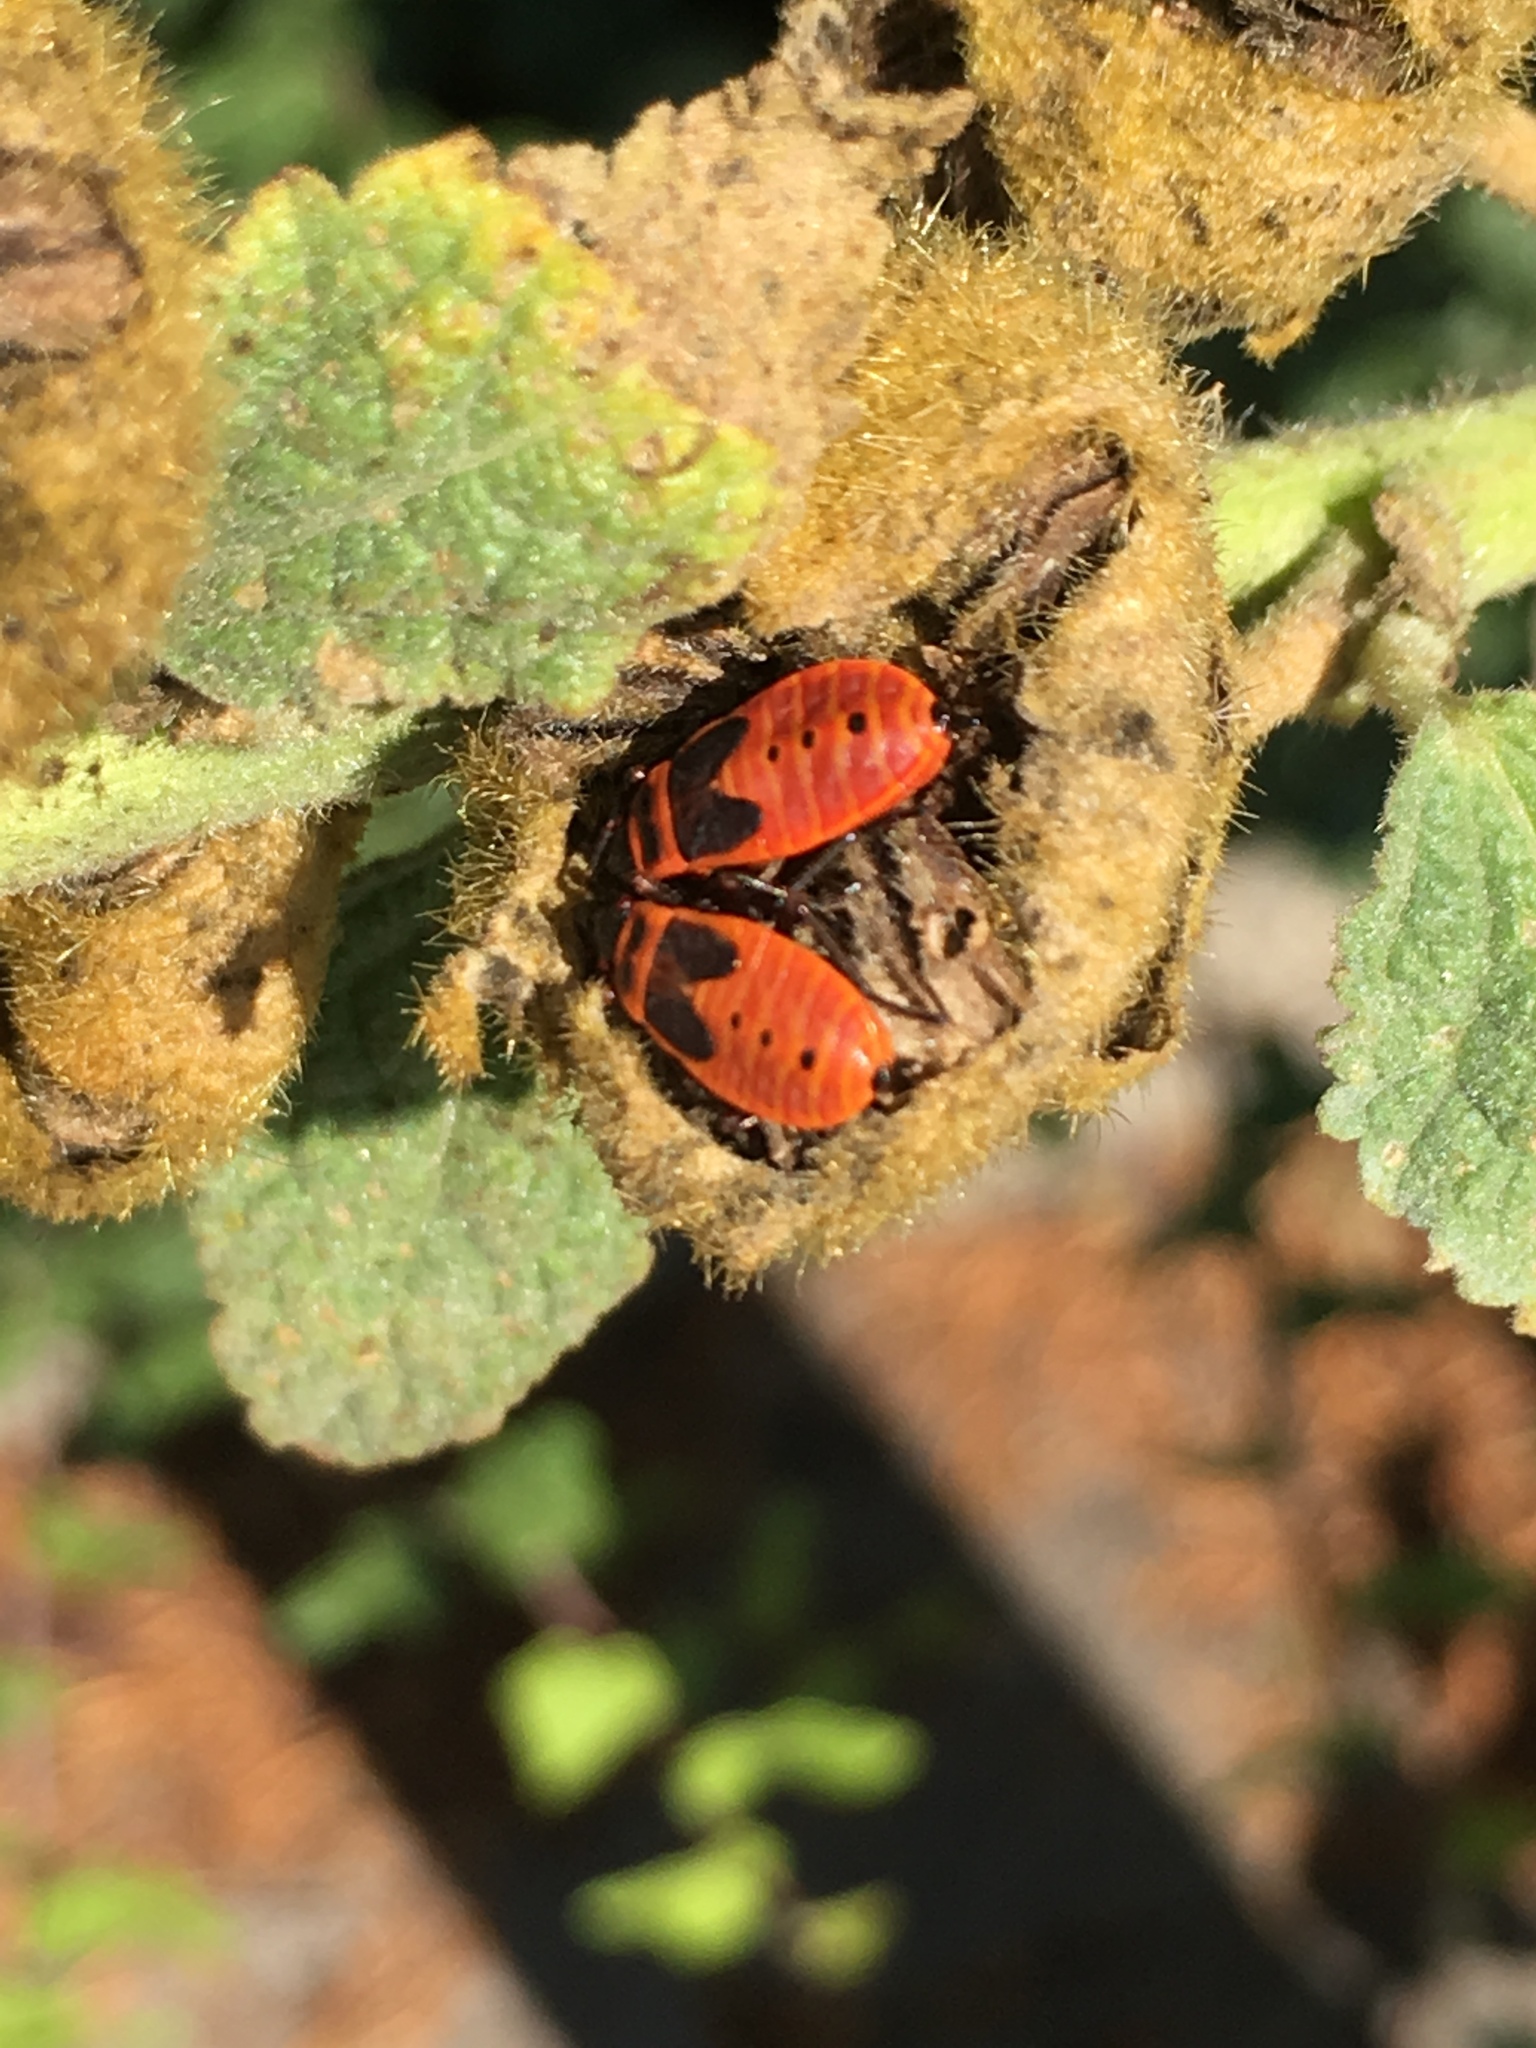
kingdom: Animalia
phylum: Arthropoda
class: Insecta
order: Hemiptera
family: Pyrrhocoridae
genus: Pyrrhocoris
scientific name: Pyrrhocoris apterus
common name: Firebug
